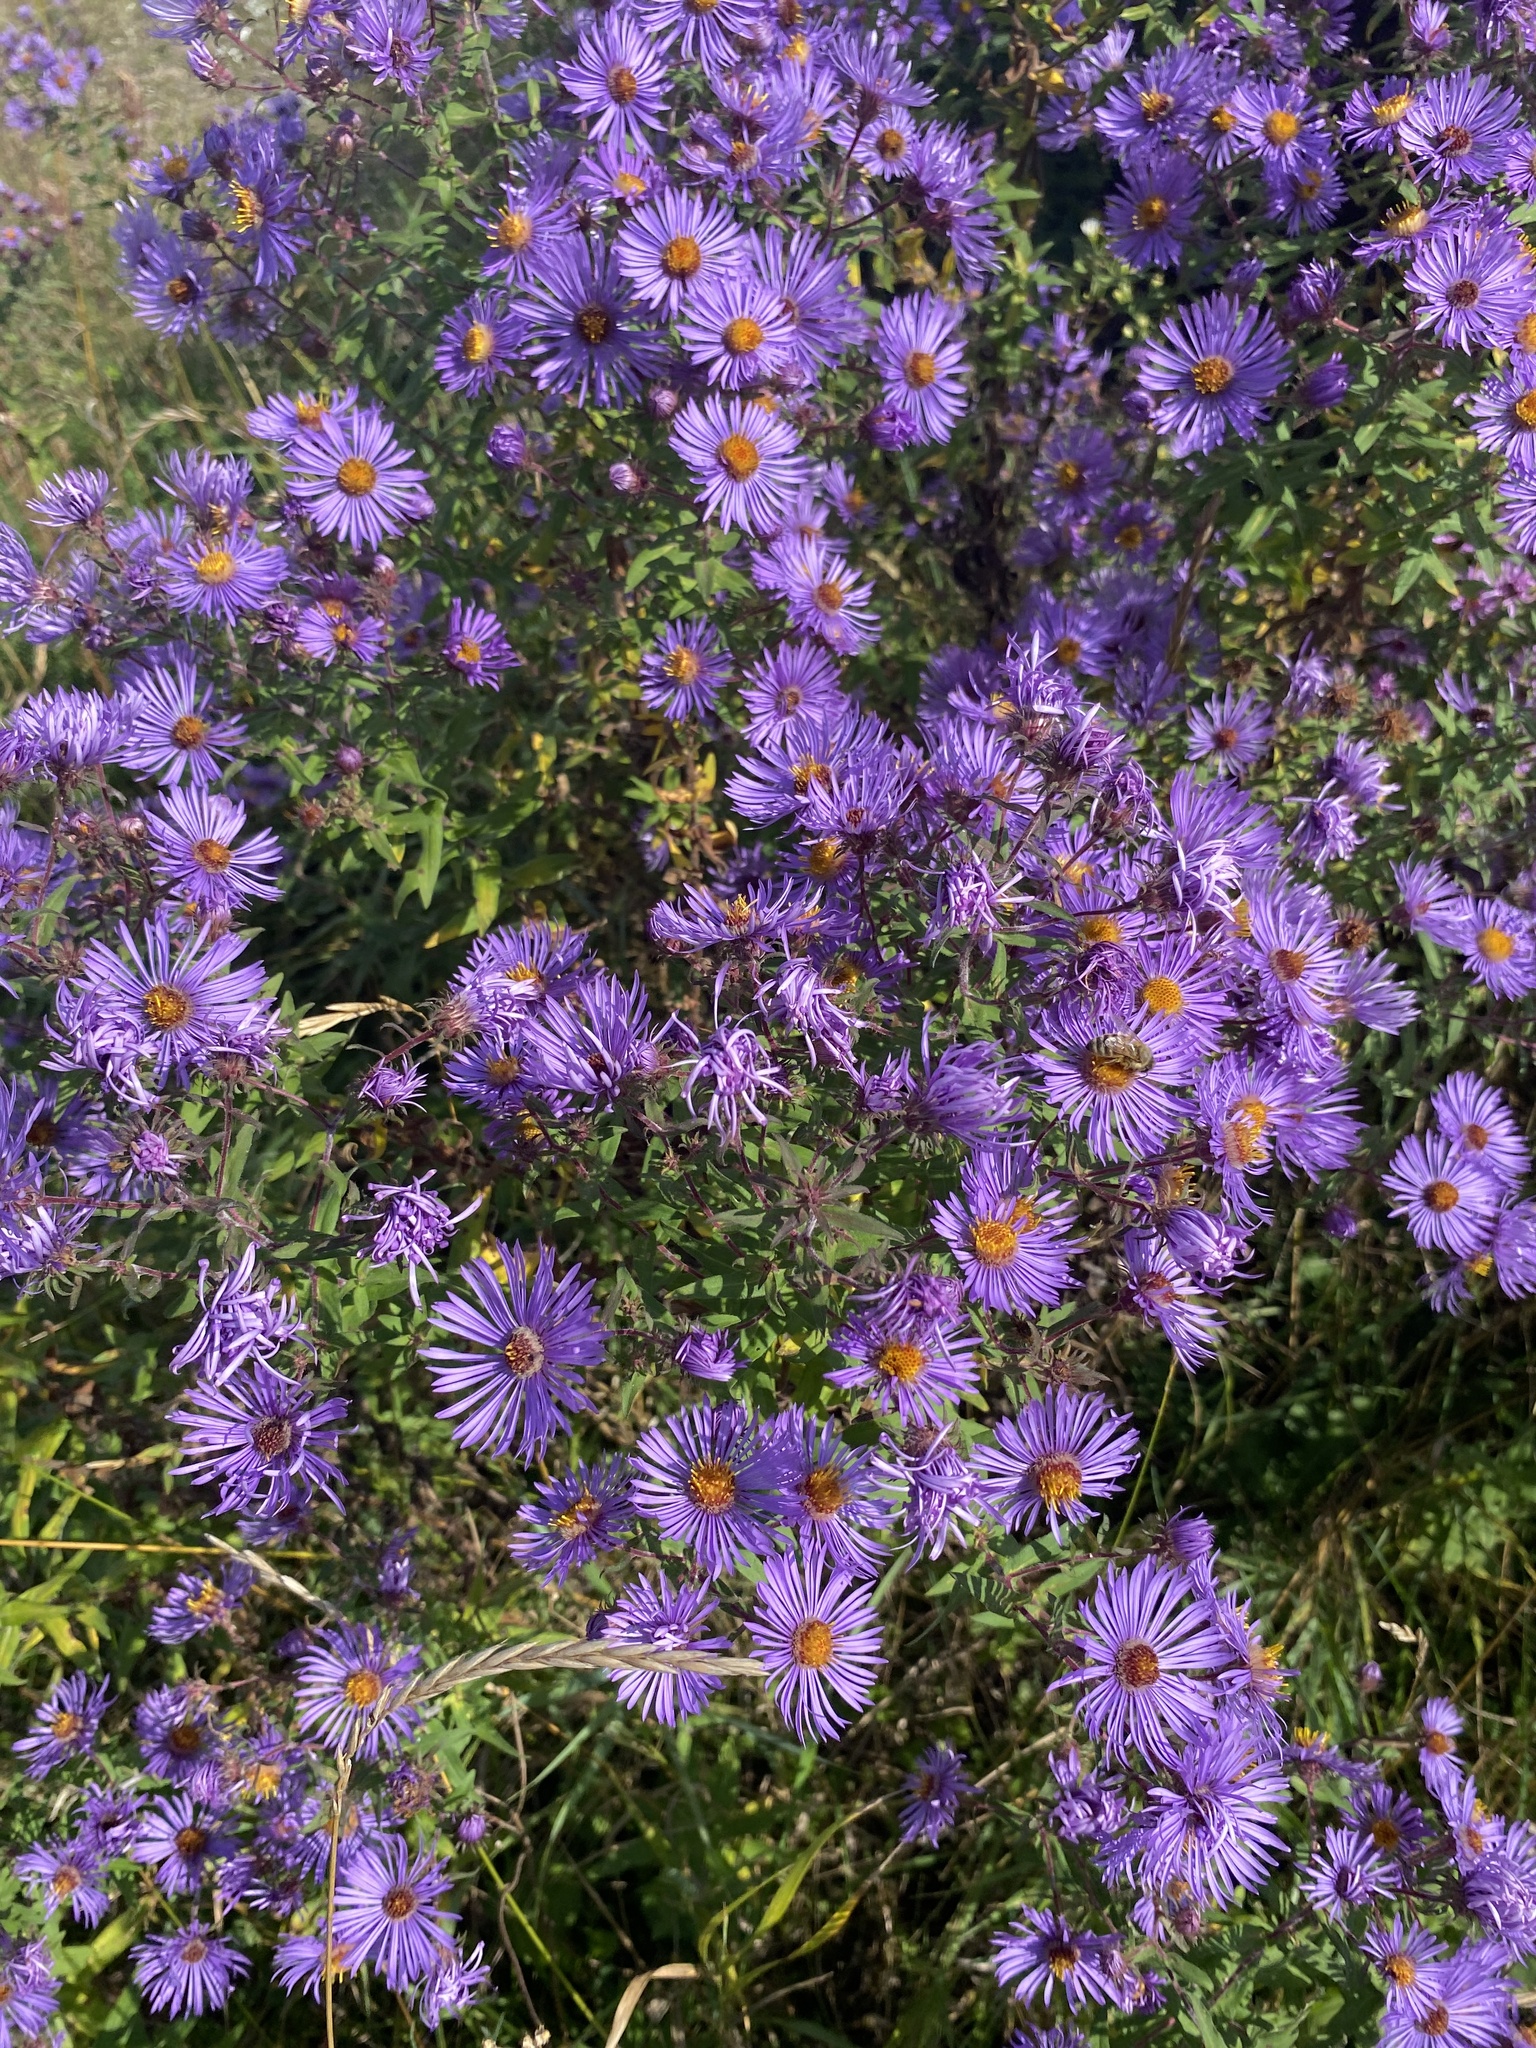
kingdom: Plantae
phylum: Tracheophyta
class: Magnoliopsida
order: Asterales
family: Asteraceae
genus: Symphyotrichum
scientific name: Symphyotrichum novae-angliae
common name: Michaelmas daisy
